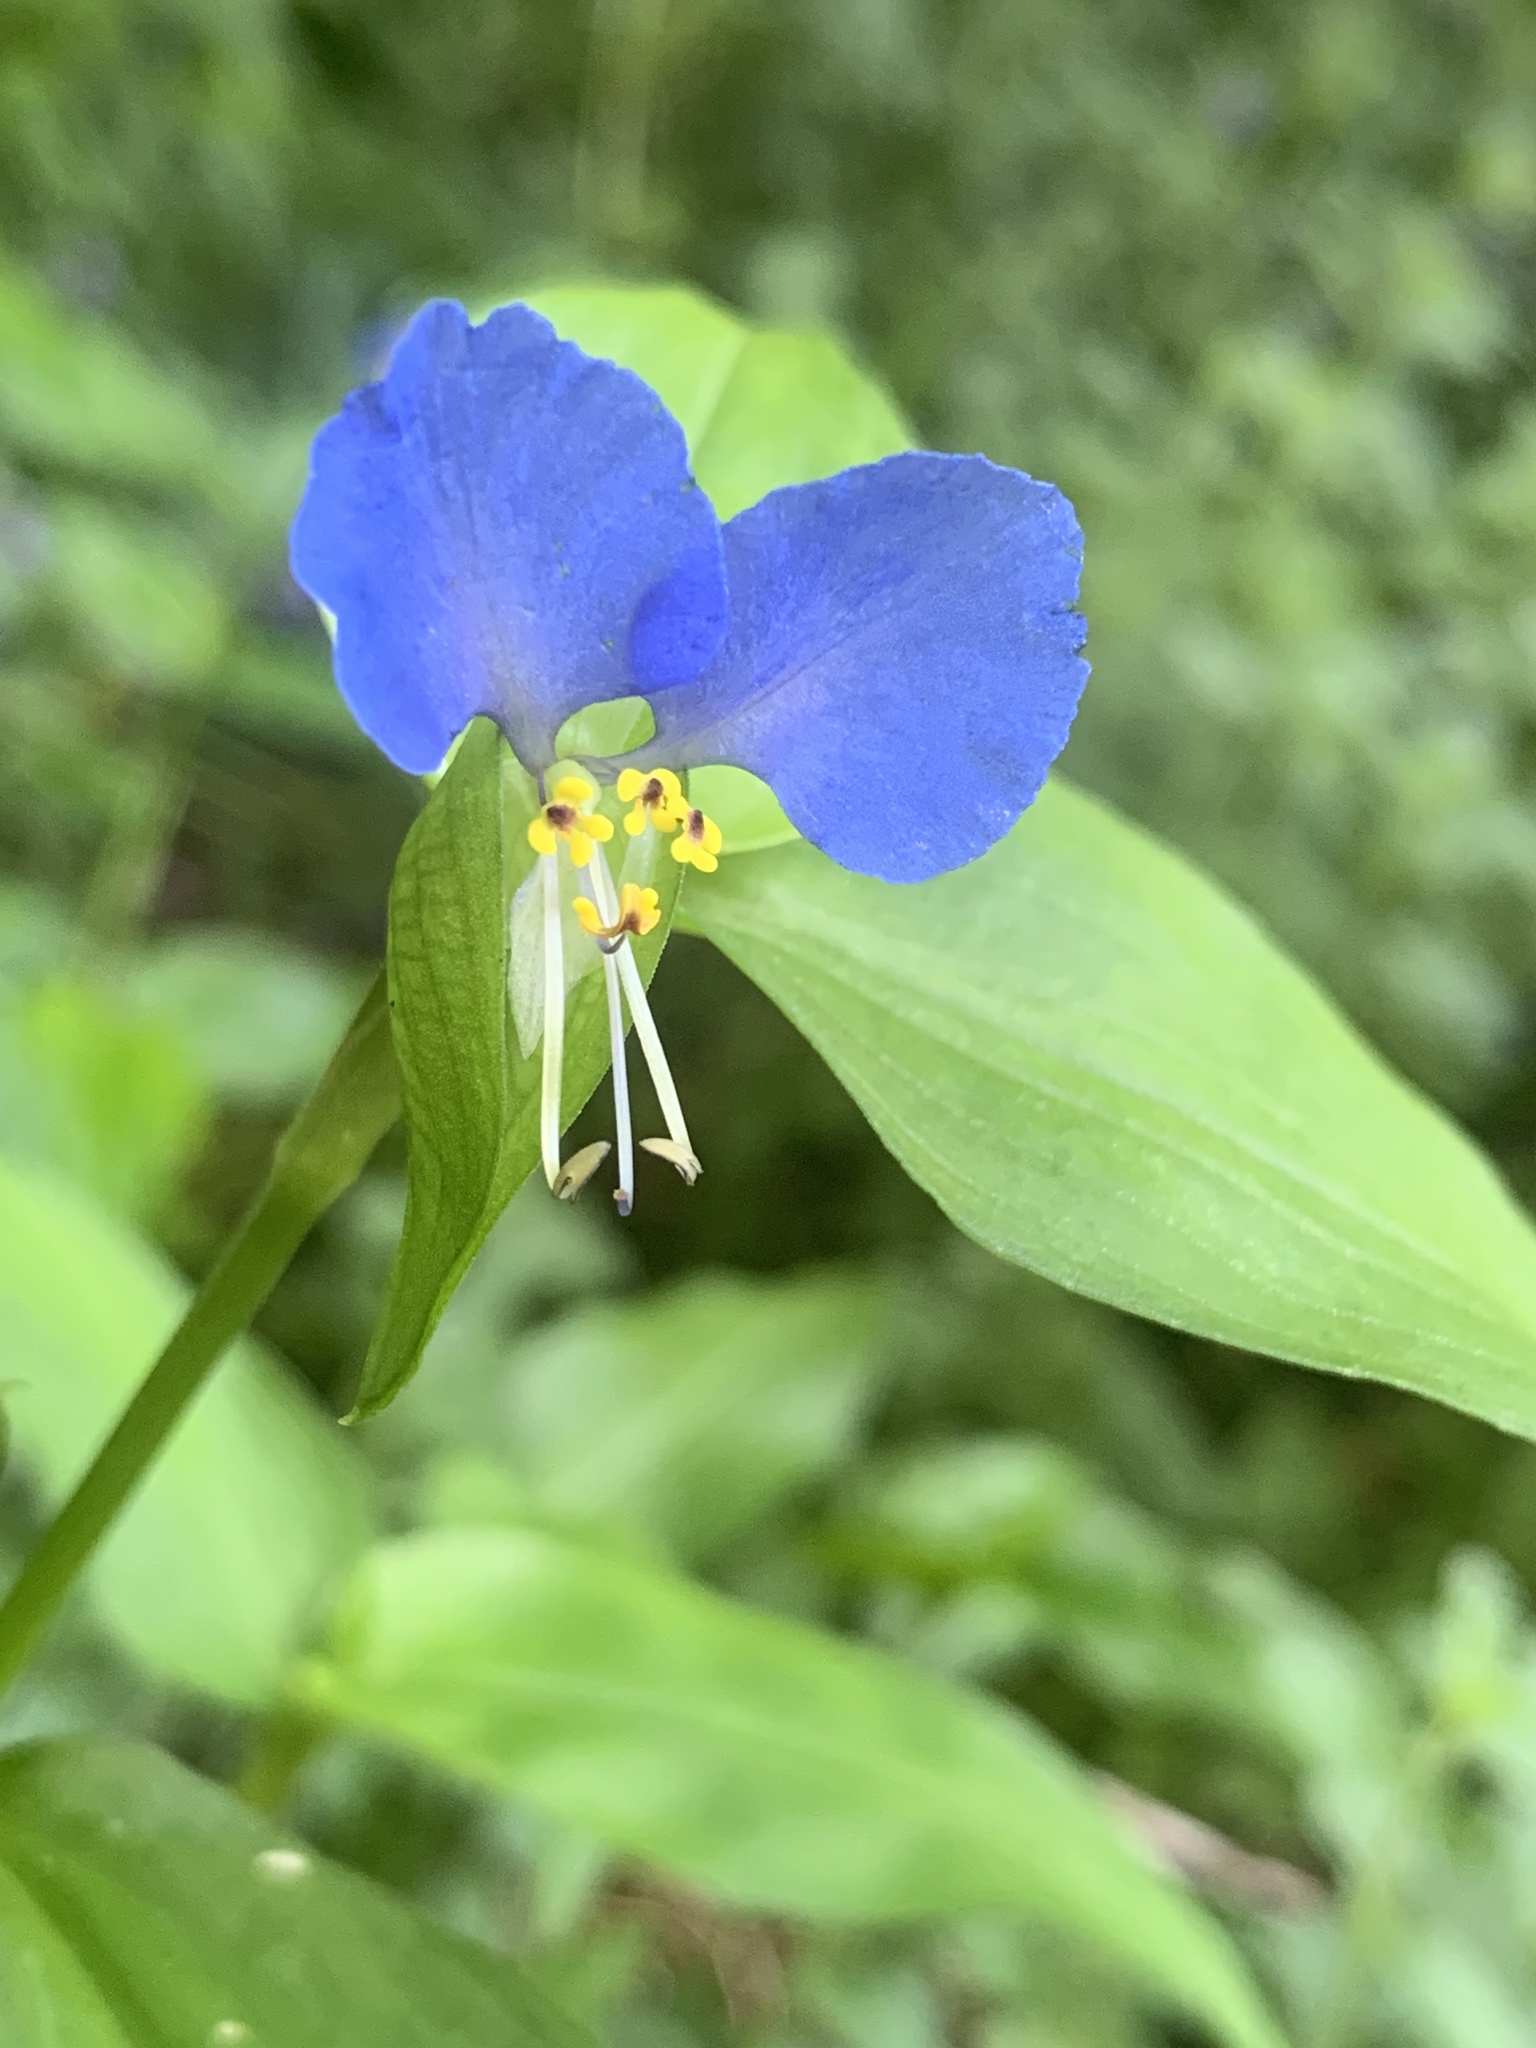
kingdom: Plantae
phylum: Tracheophyta
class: Liliopsida
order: Commelinales
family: Commelinaceae
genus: Commelina
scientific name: Commelina communis
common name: Asiatic dayflower
